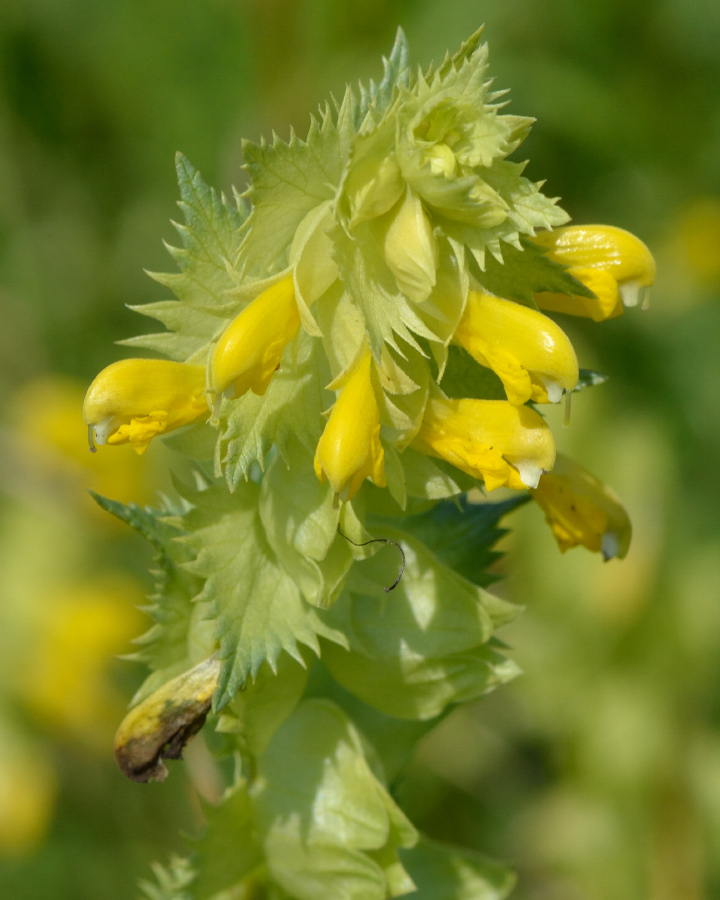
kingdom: Plantae
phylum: Tracheophyta
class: Magnoliopsida
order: Lamiales
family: Orobanchaceae
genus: Rhinanthus
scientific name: Rhinanthus serotinus
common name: Late-flowering yellow rattle
